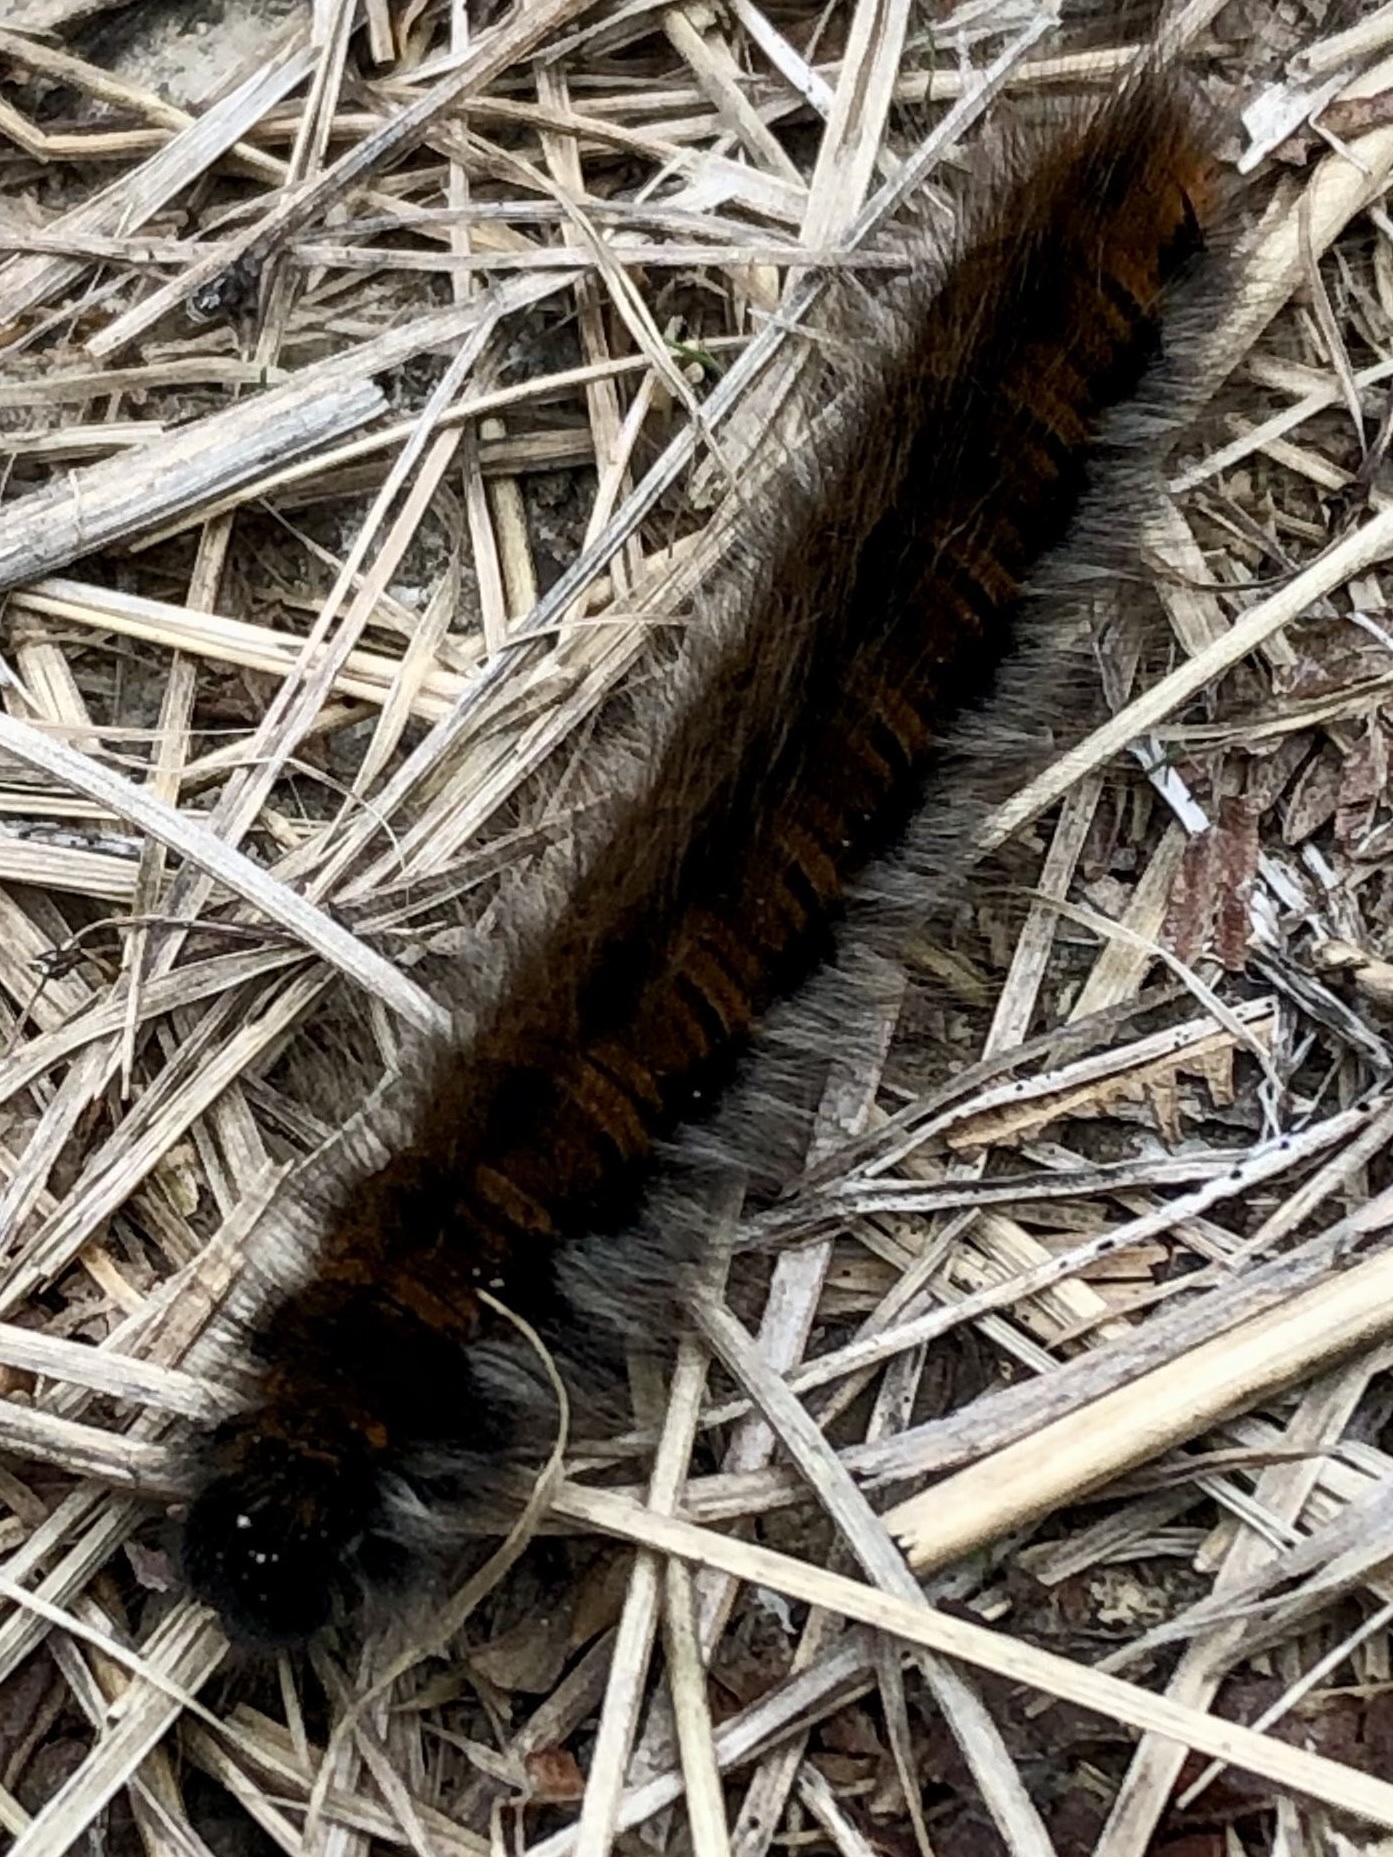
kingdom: Animalia
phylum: Arthropoda
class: Insecta
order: Lepidoptera
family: Lasiocampidae
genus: Macrothylacia
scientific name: Macrothylacia rubi
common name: Fox moth
